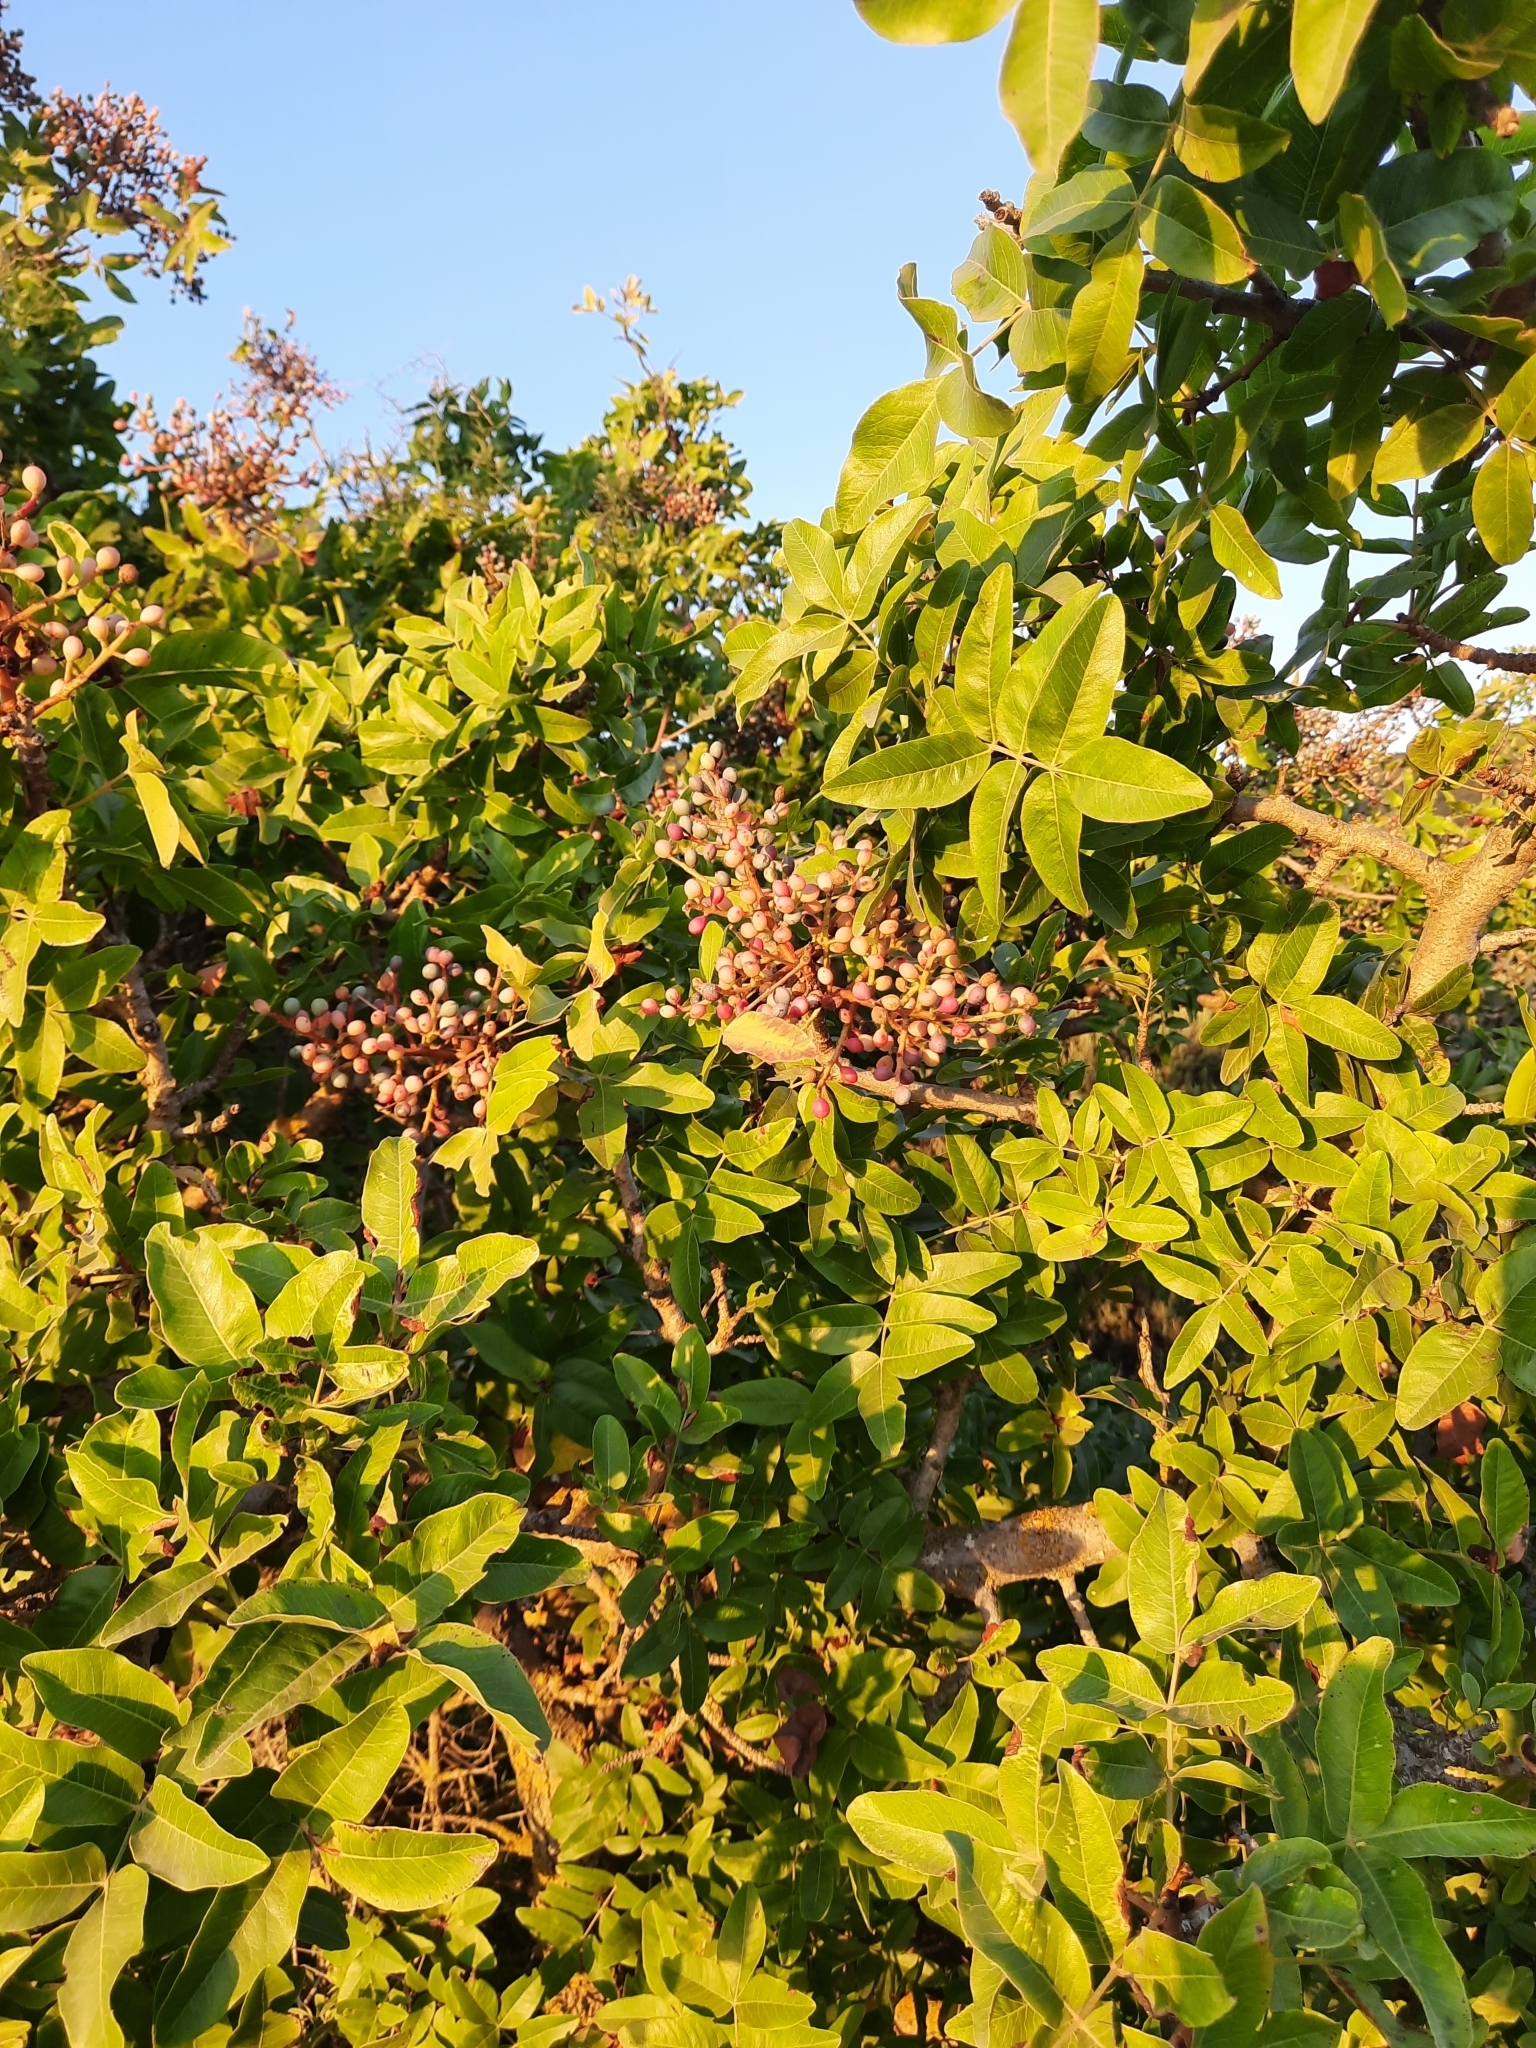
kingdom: Plantae
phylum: Tracheophyta
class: Magnoliopsida
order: Sapindales
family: Anacardiaceae
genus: Pistacia
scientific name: Pistacia atlantica
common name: Mt. atlas mastic tree
